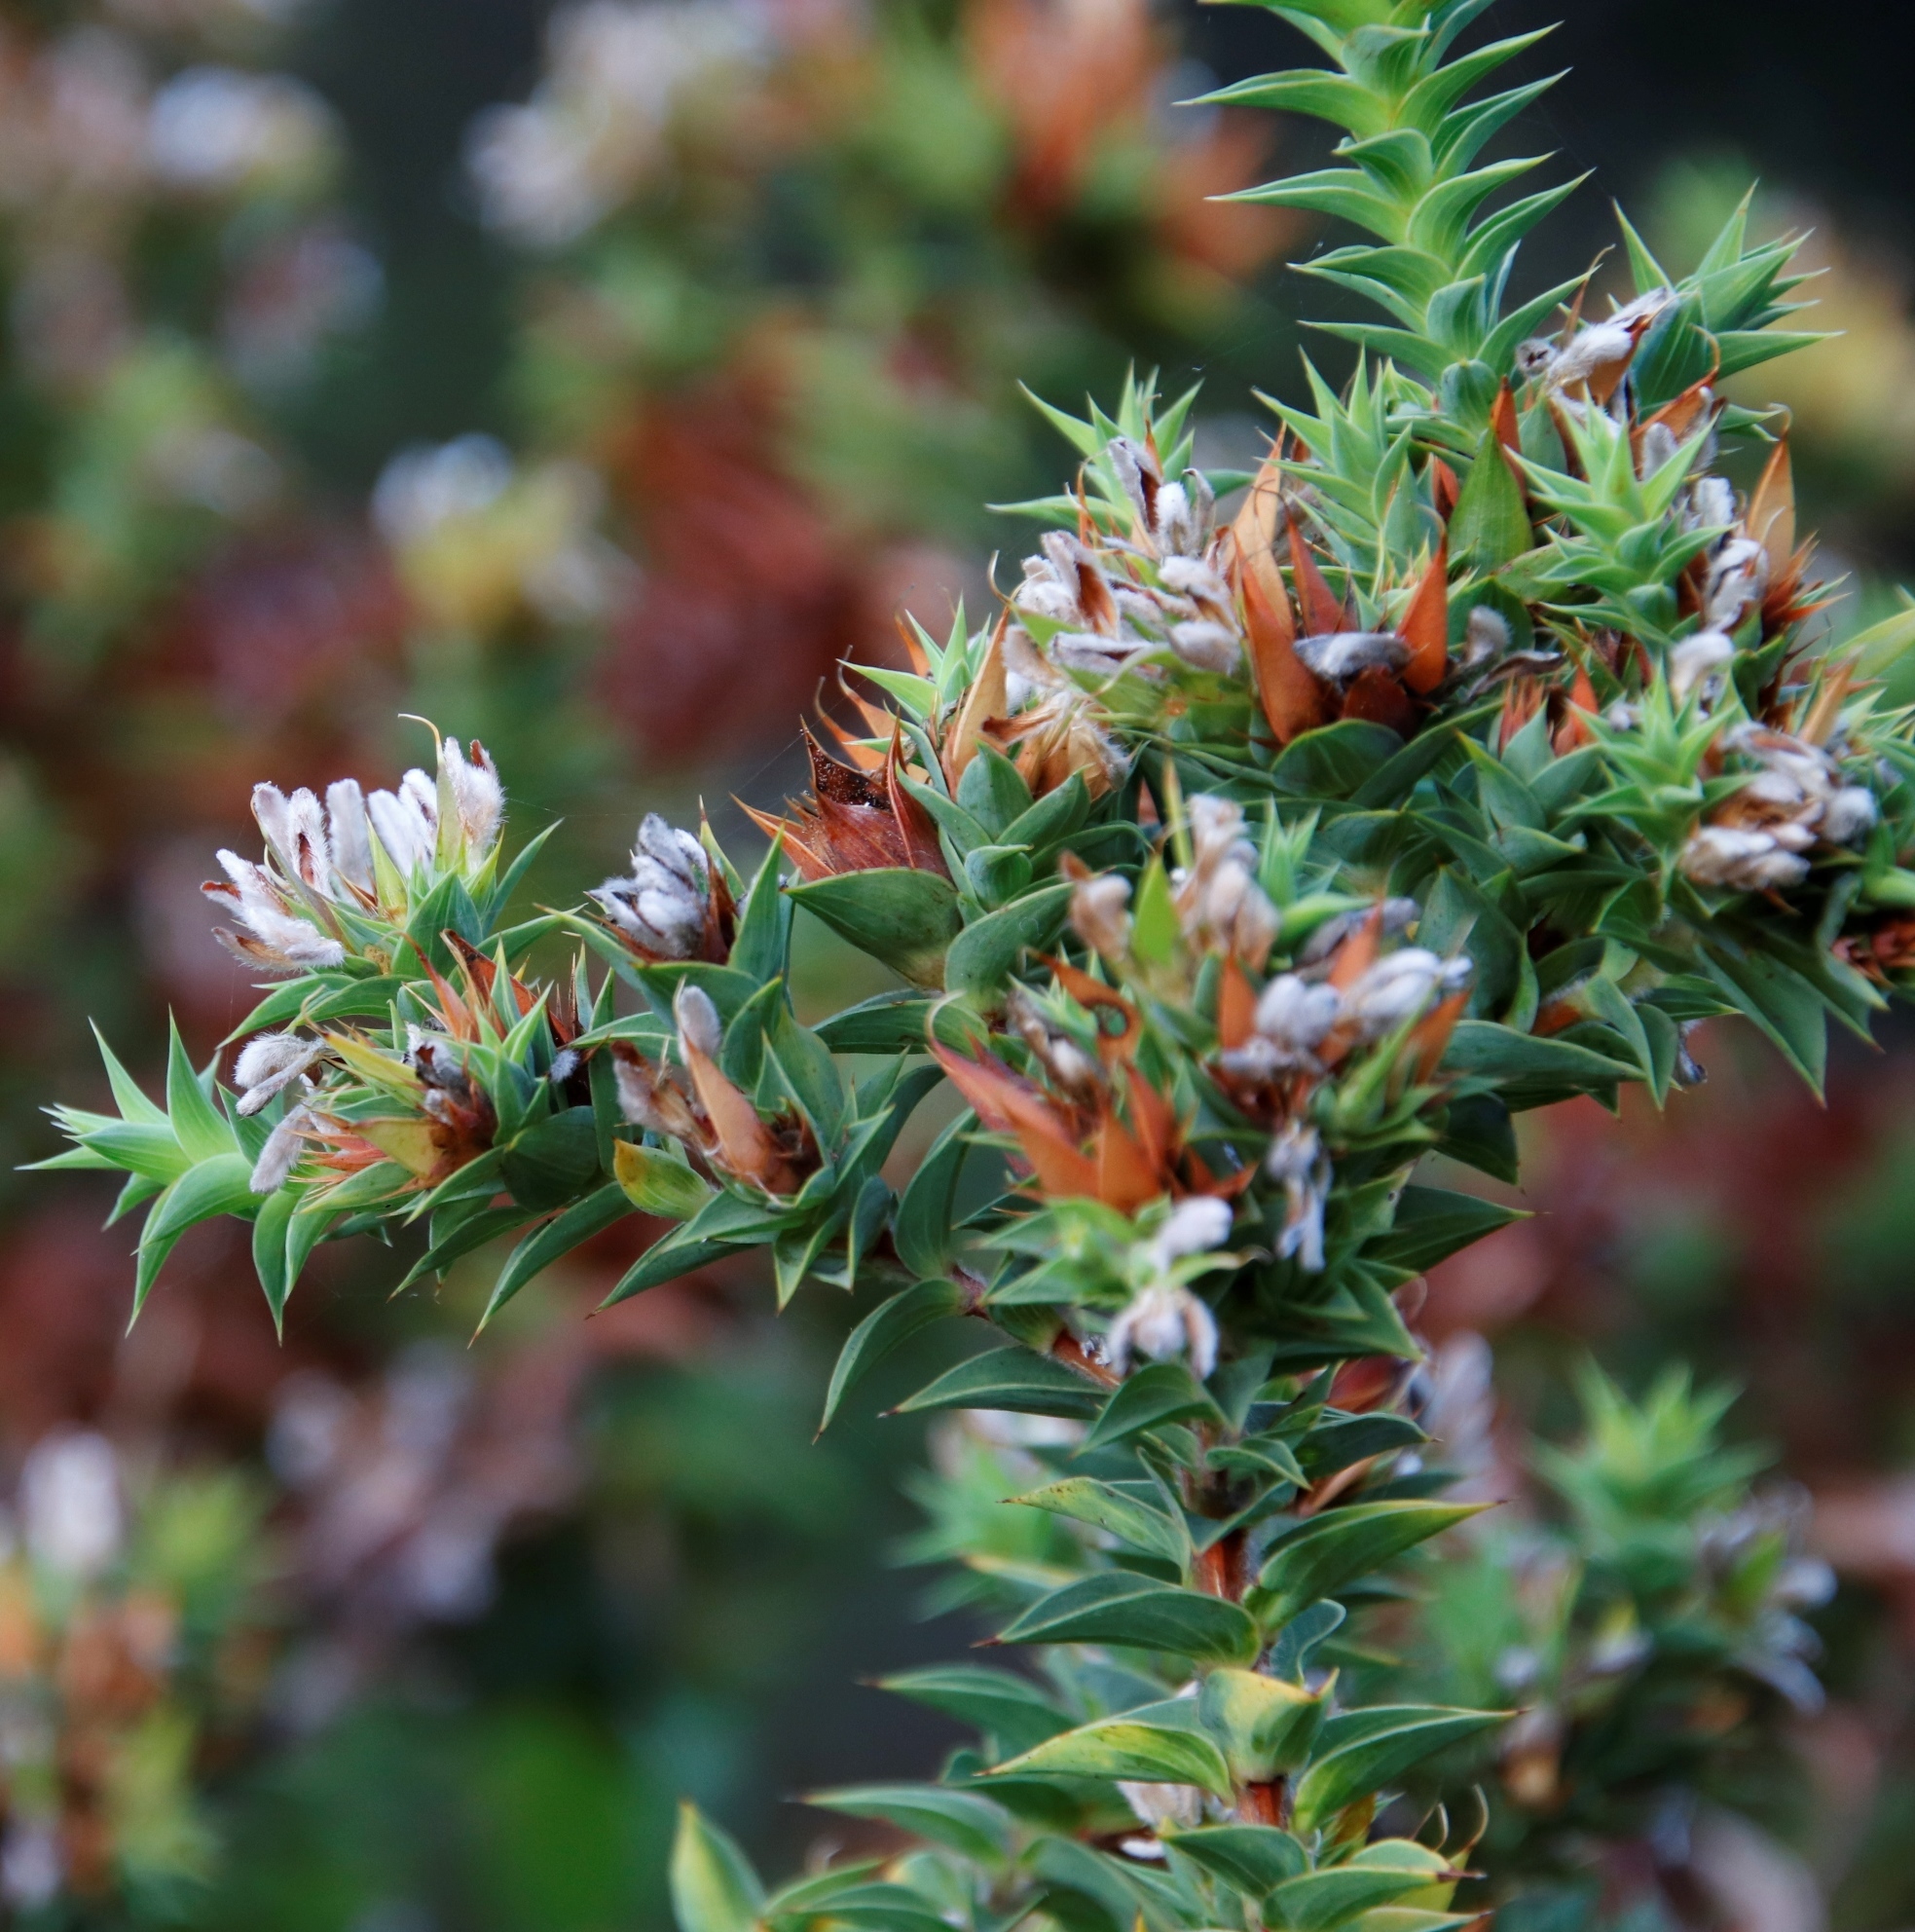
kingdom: Plantae
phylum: Tracheophyta
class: Magnoliopsida
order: Fabales
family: Fabaceae
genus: Aspalathus
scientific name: Aspalathus cordata
